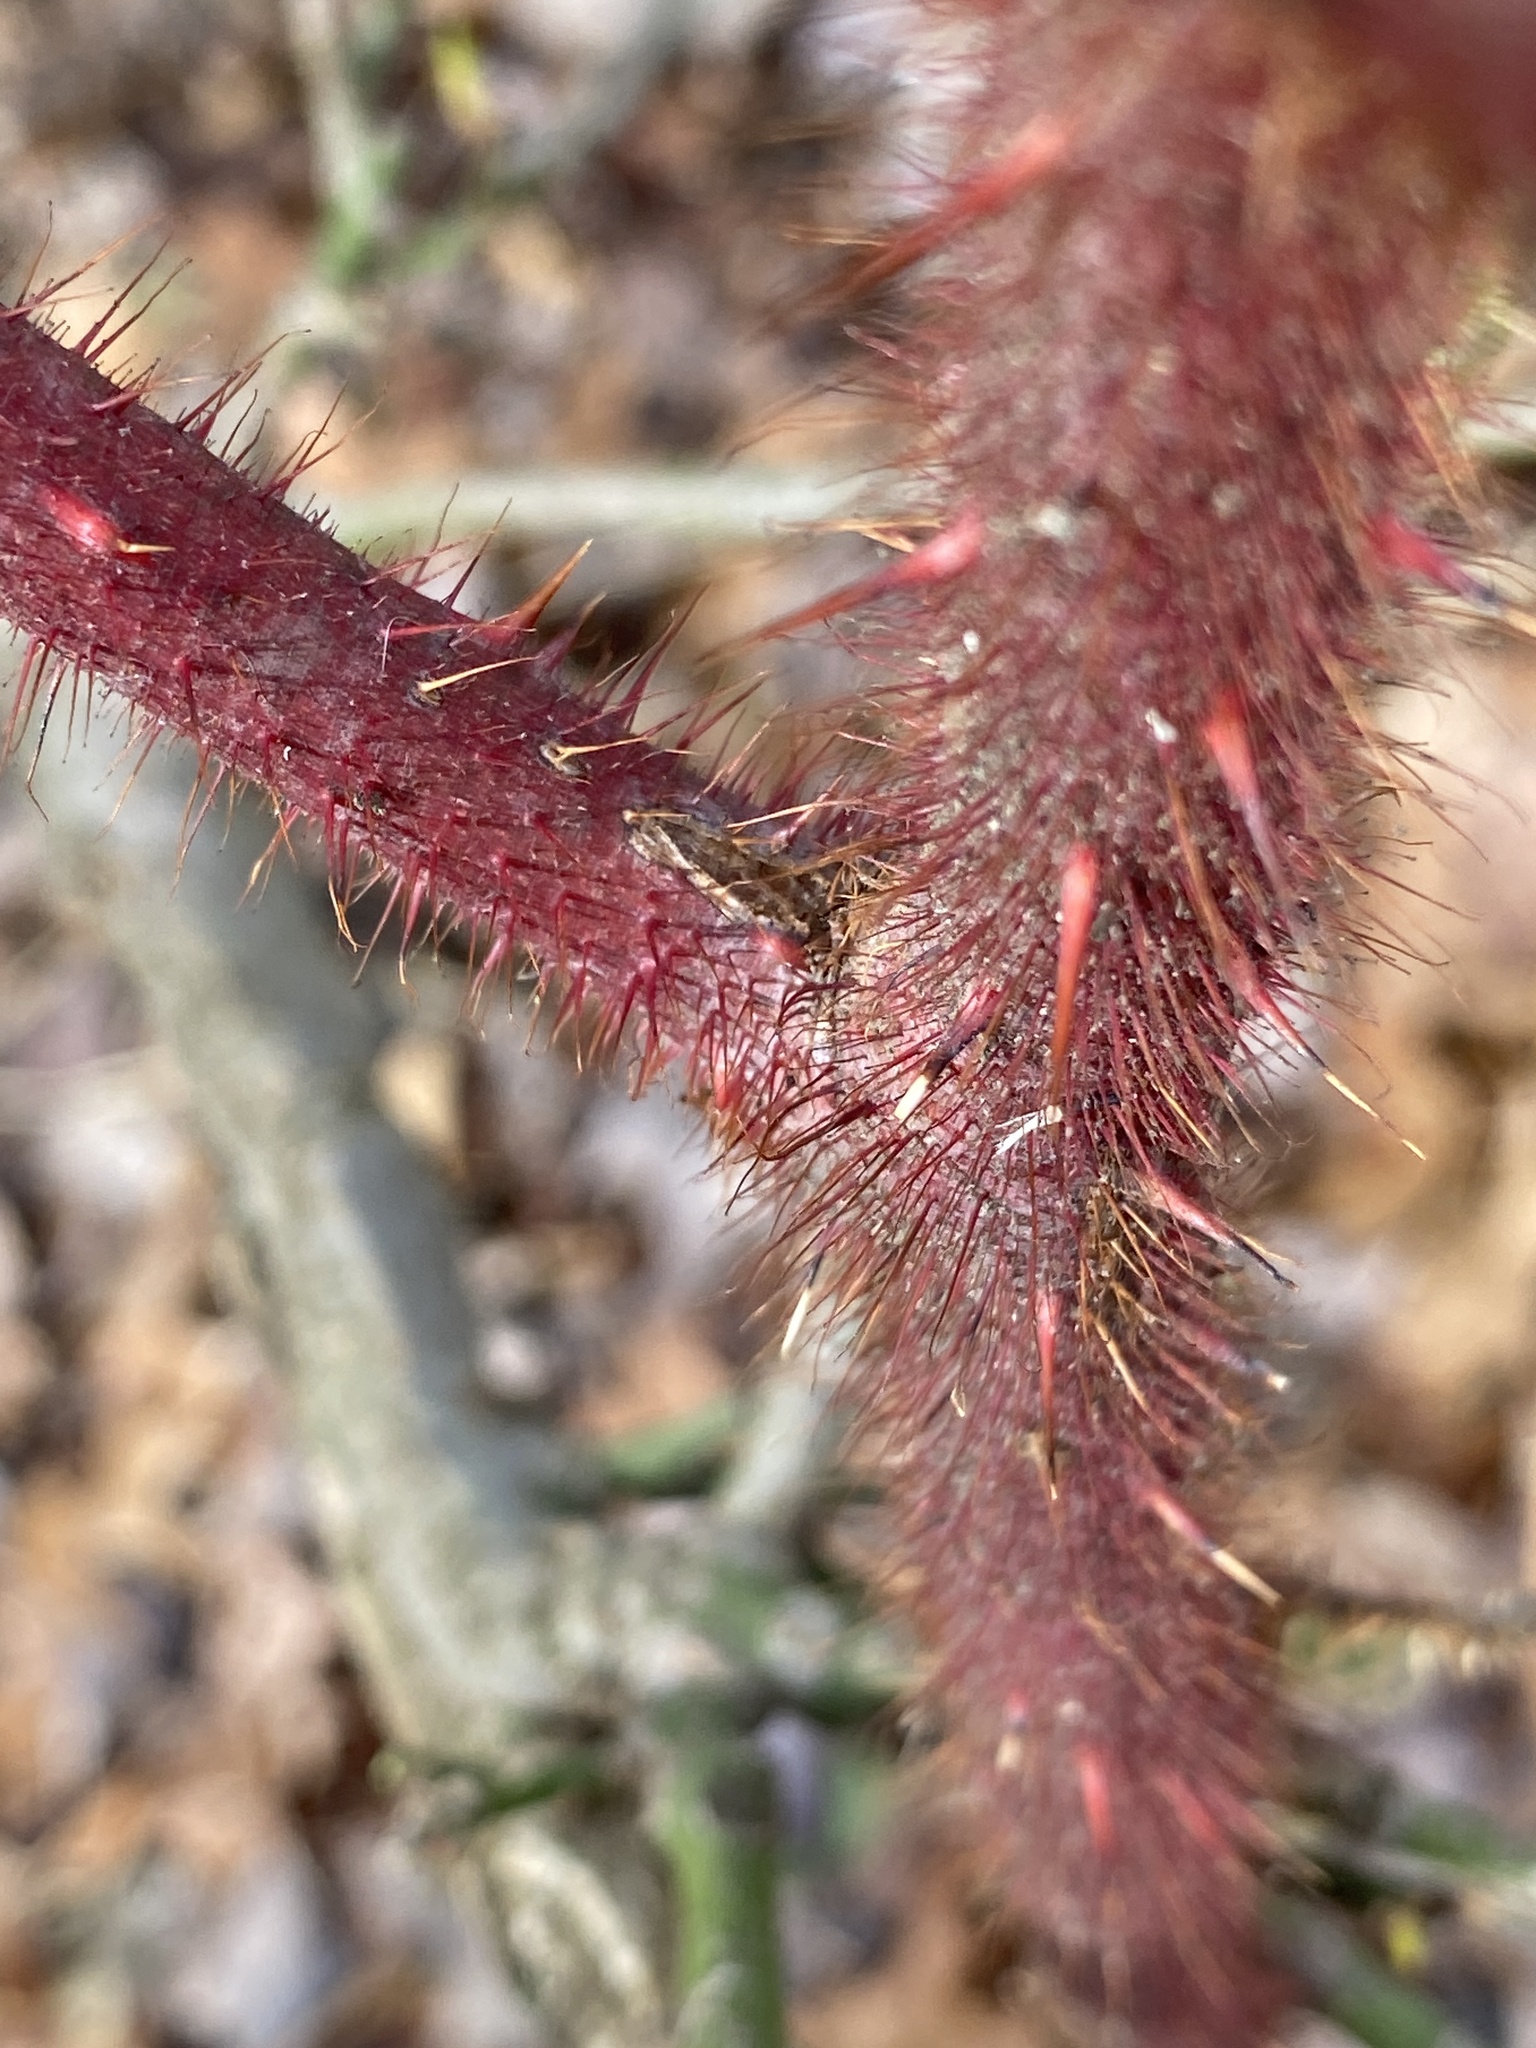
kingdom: Plantae
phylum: Tracheophyta
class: Magnoliopsida
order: Rosales
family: Rosaceae
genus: Rubus
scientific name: Rubus phoenicolasius
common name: Japanese wineberry
